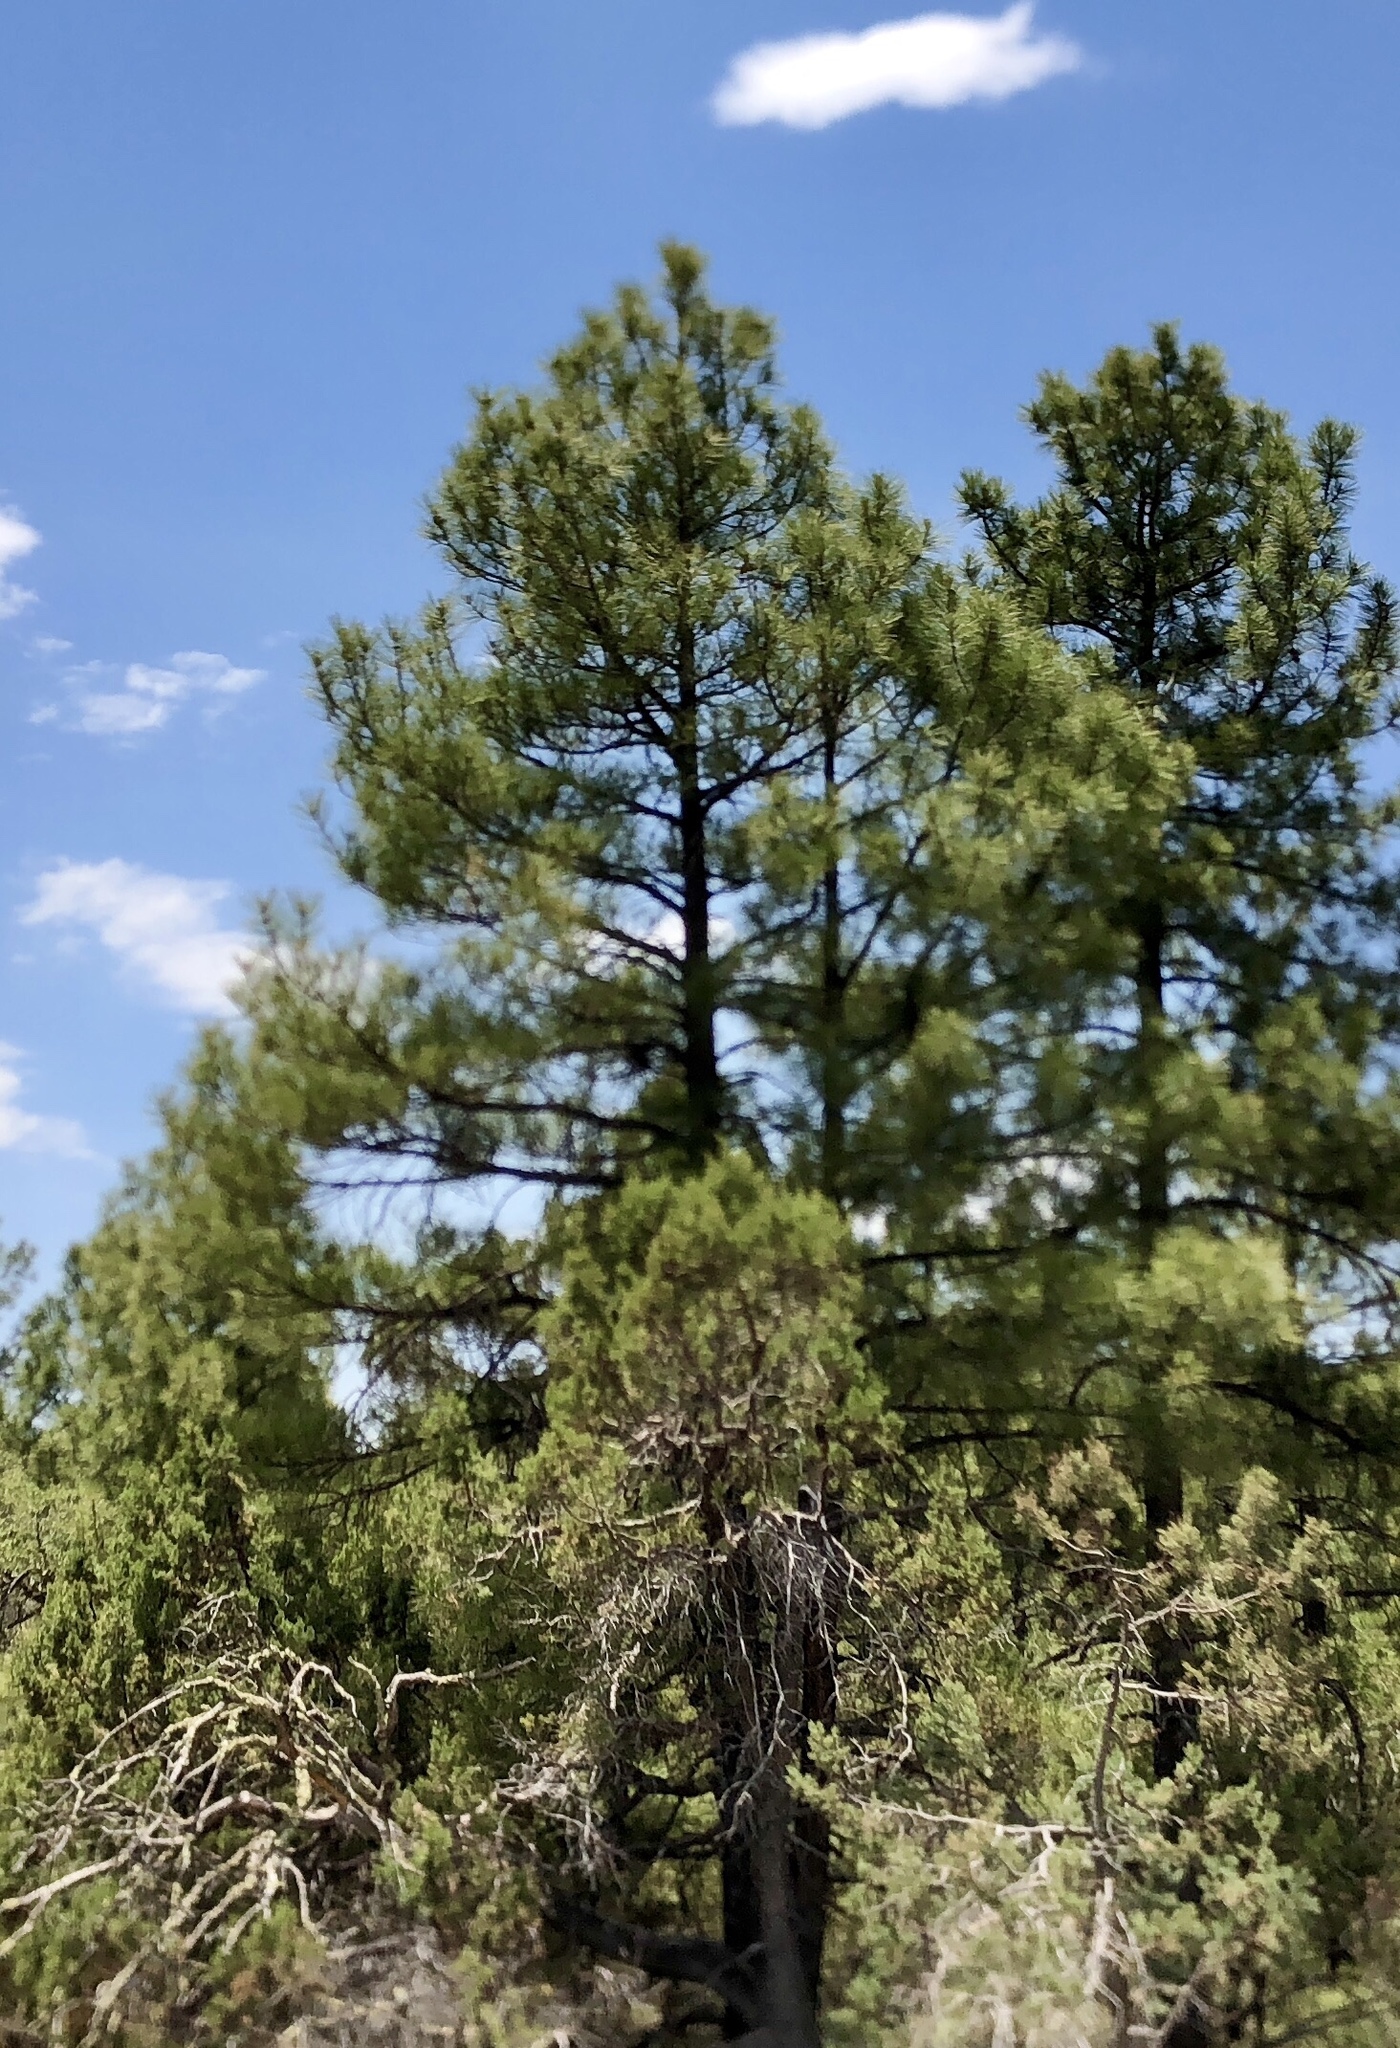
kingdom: Plantae
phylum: Tracheophyta
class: Pinopsida
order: Pinales
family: Pinaceae
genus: Pinus
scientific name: Pinus ponderosa
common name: Western yellow-pine
